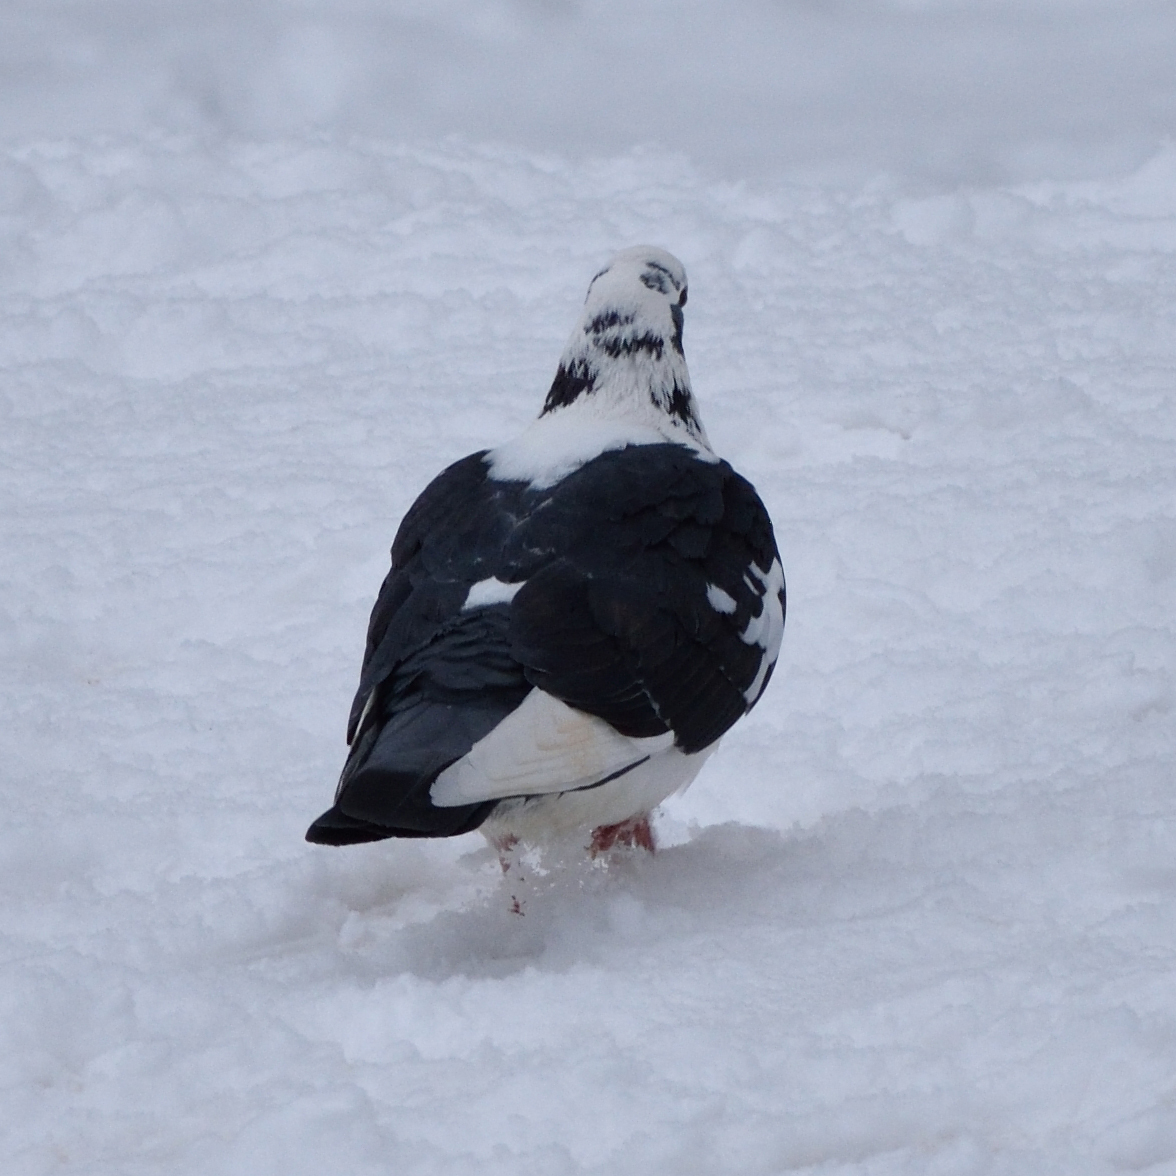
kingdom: Animalia
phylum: Chordata
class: Aves
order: Columbiformes
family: Columbidae
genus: Columba
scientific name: Columba livia
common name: Rock pigeon
